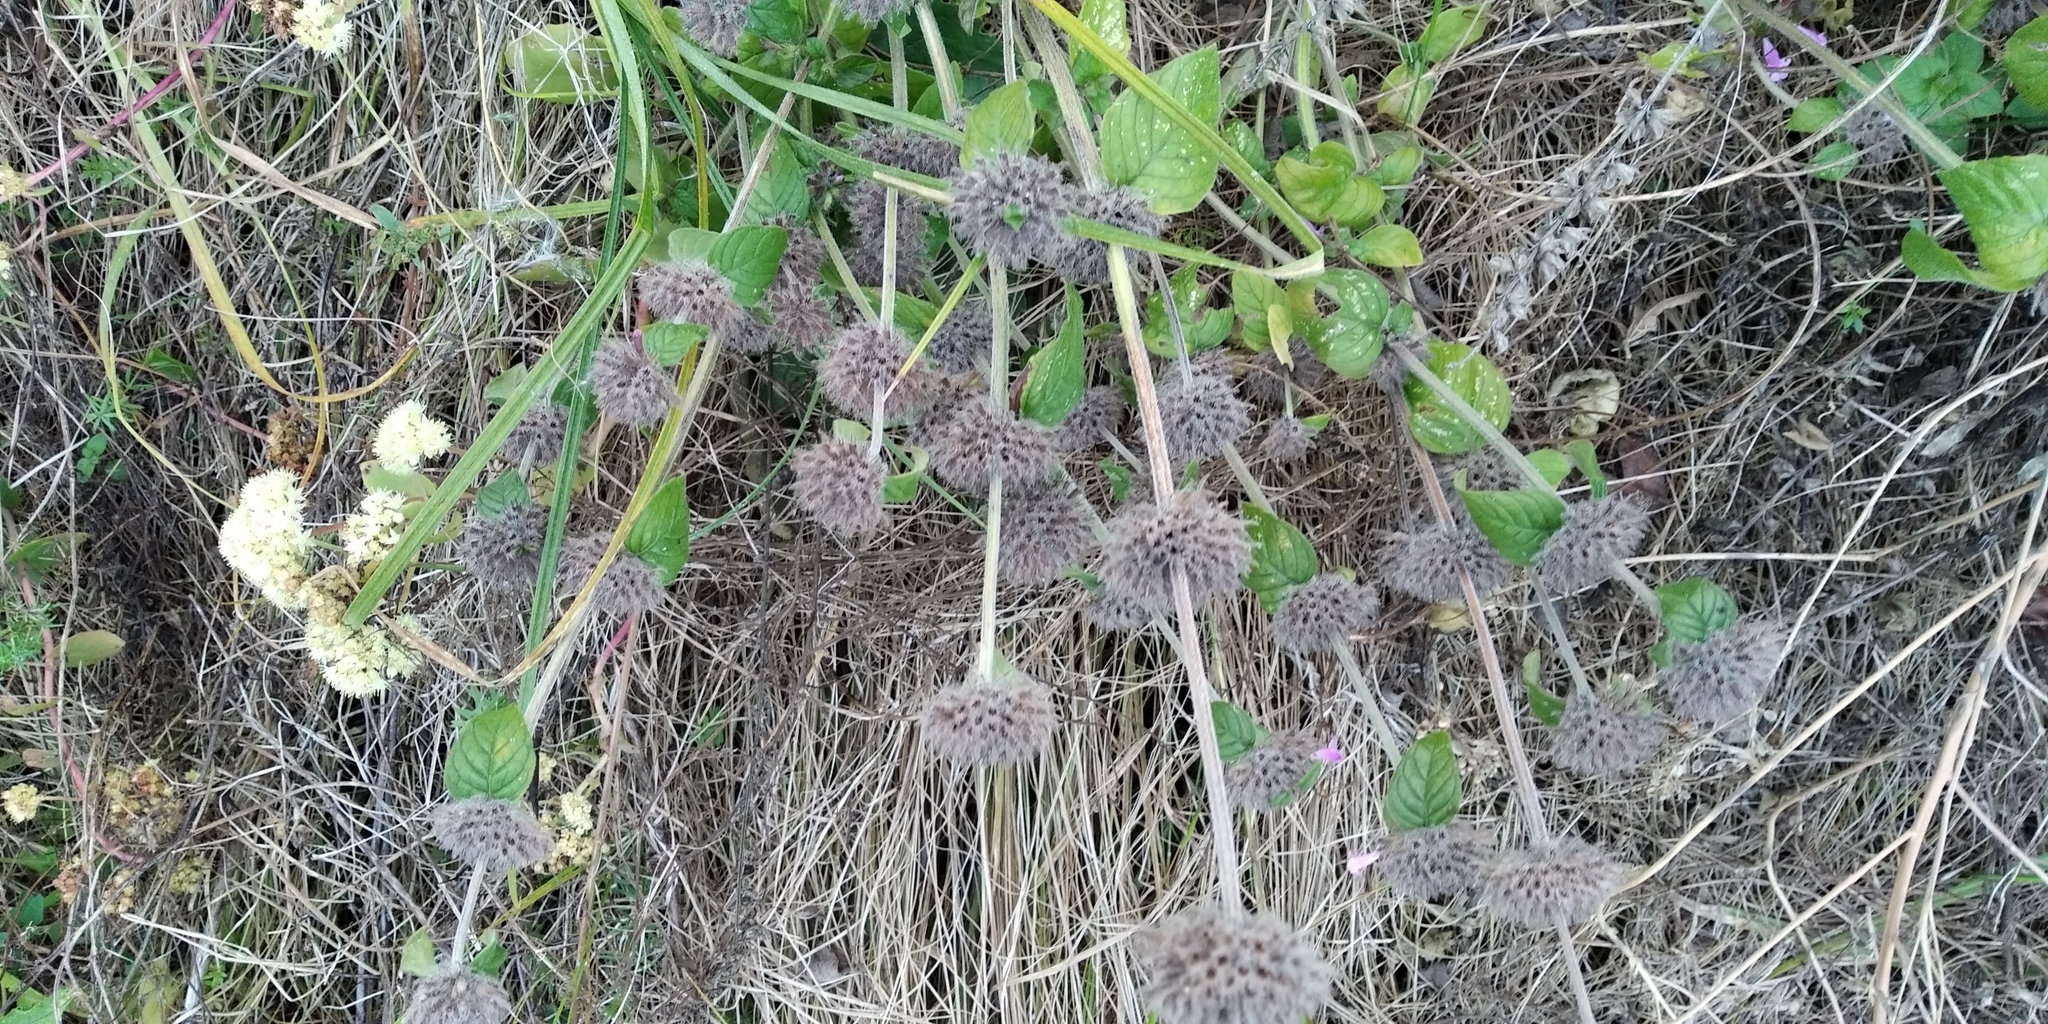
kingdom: Plantae
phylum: Tracheophyta
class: Magnoliopsida
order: Lamiales
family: Lamiaceae
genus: Clinopodium
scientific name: Clinopodium vulgare
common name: Wild basil
